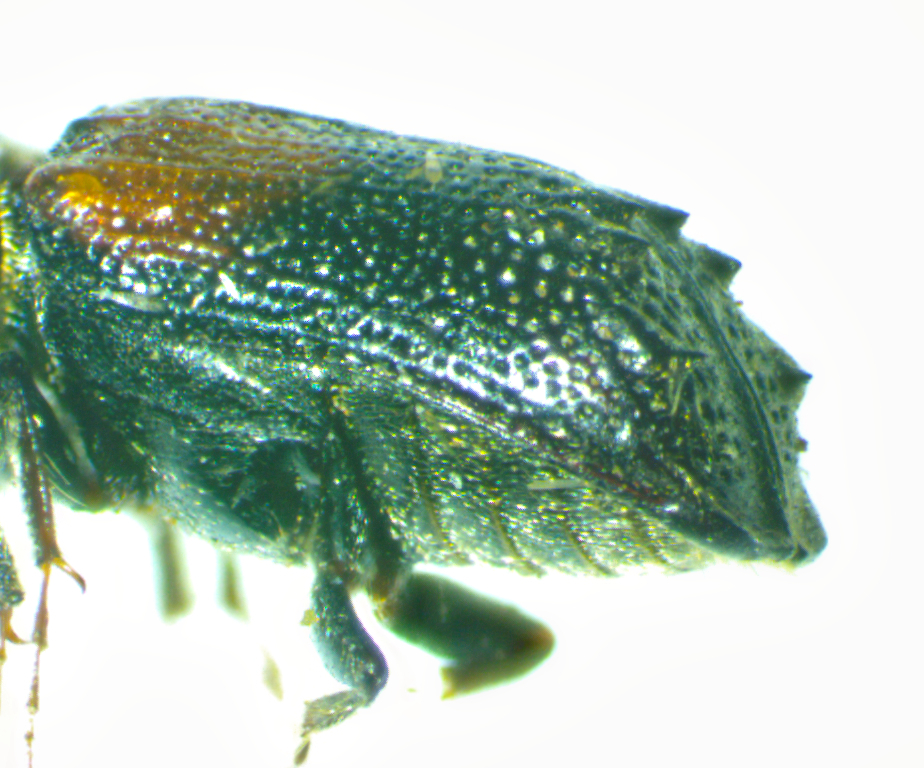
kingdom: Animalia
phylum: Arthropoda
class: Insecta
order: Coleoptera
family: Bostrichidae
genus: Xylobiops
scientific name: Xylobiops basilaris
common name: Red-shouldered bostrichid
